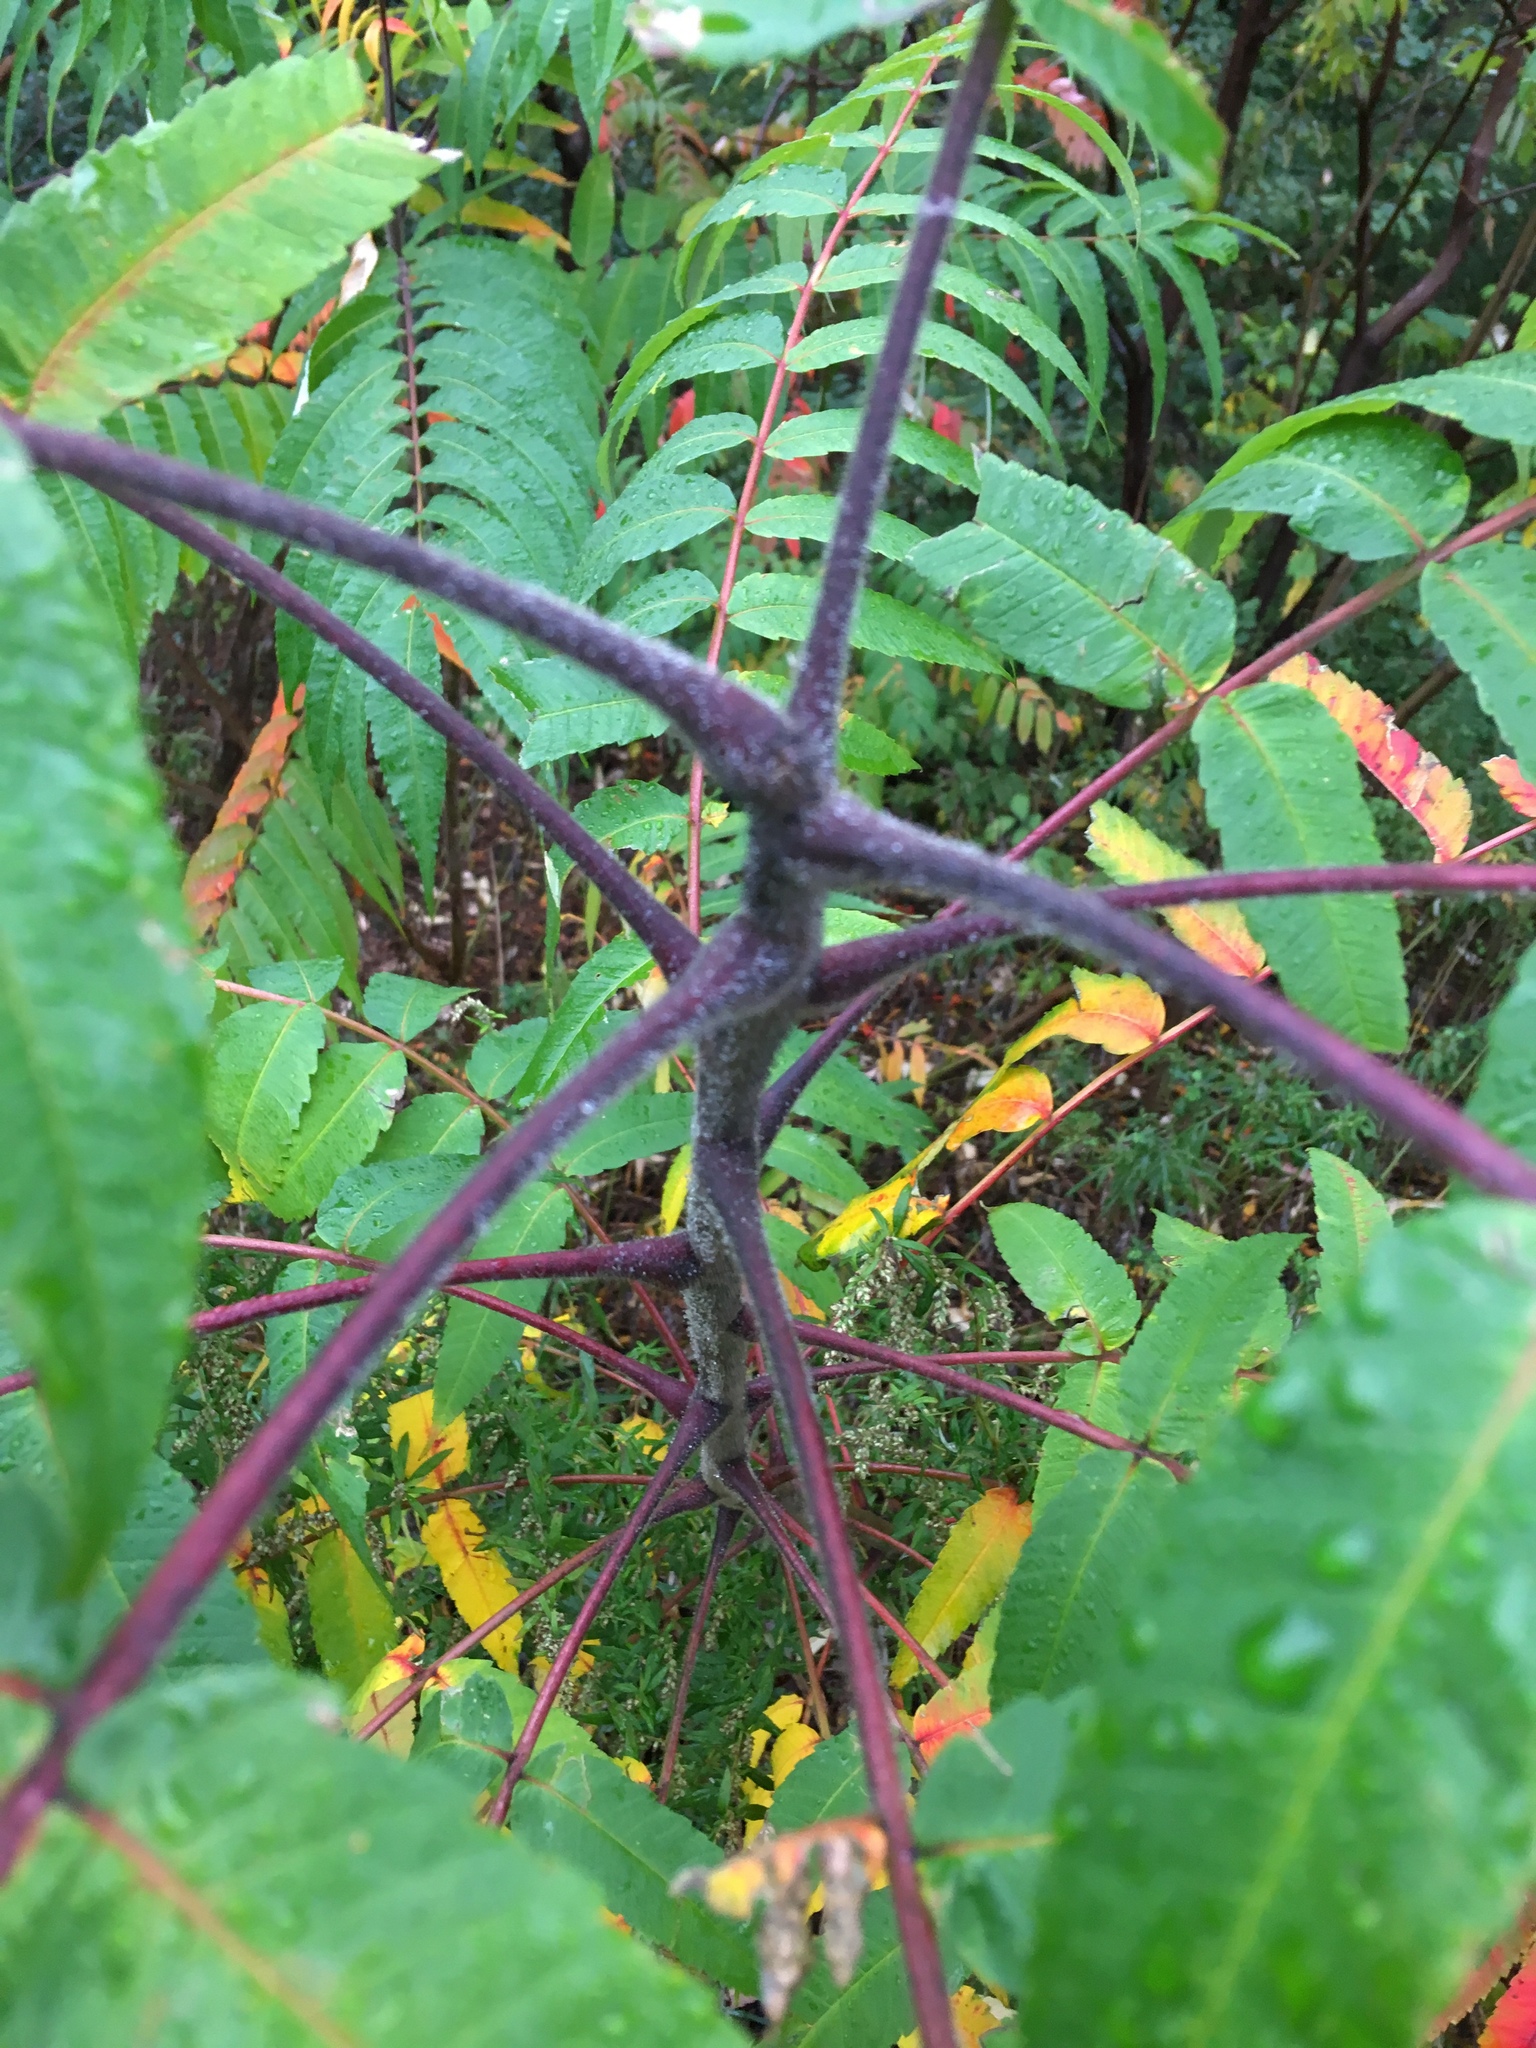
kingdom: Plantae
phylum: Tracheophyta
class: Magnoliopsida
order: Sapindales
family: Anacardiaceae
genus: Rhus
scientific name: Rhus typhina
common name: Staghorn sumac
